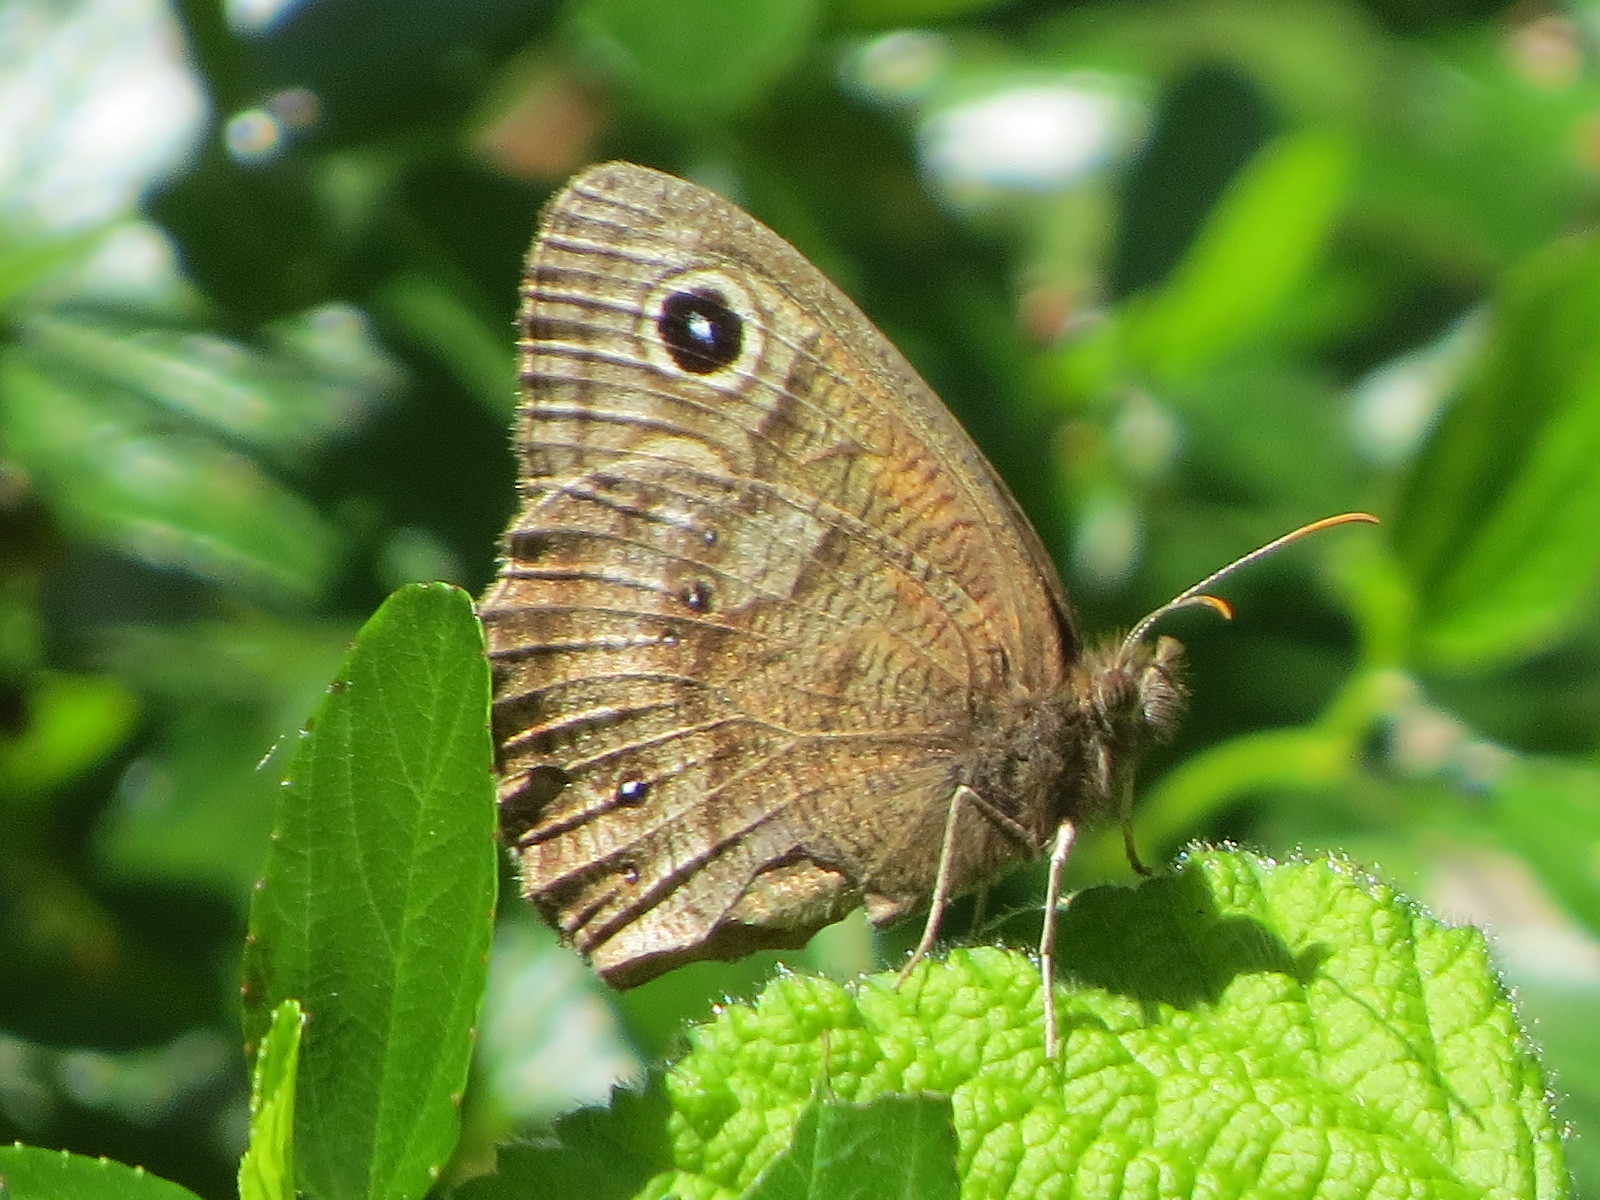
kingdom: Animalia
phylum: Arthropoda
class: Insecta
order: Lepidoptera
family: Nymphalidae
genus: Cercyonis
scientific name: Cercyonis pegala
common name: Common wood-nymph
